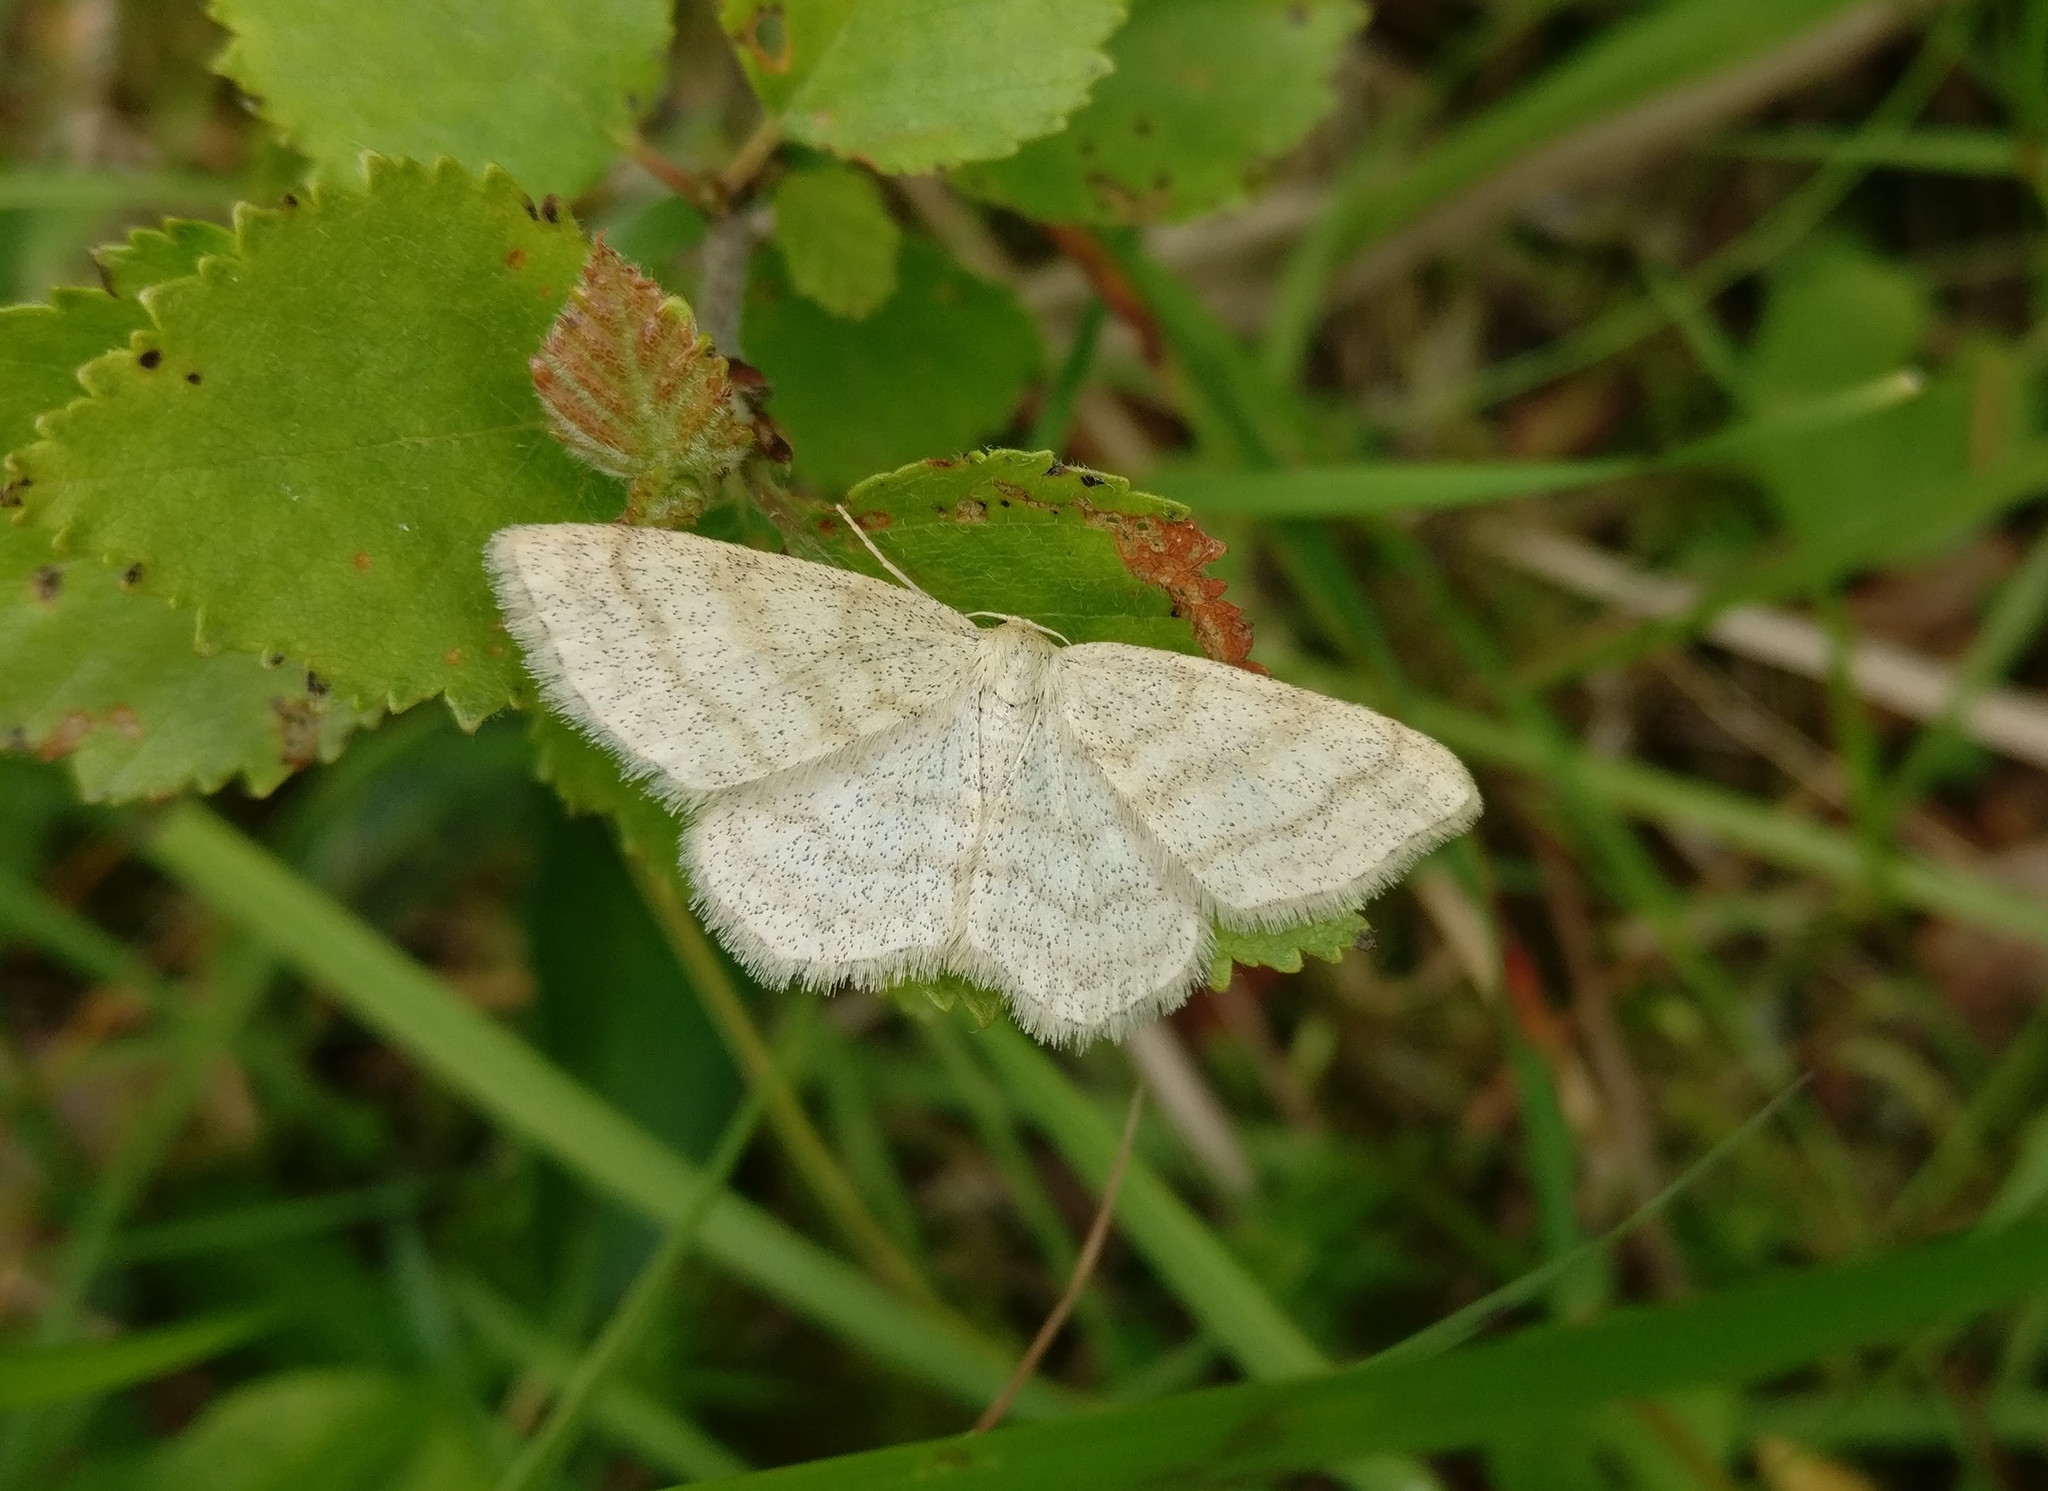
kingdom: Animalia
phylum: Arthropoda
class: Insecta
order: Lepidoptera
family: Geometridae
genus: Scopula
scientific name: Scopula ternata
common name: Smoky wave
